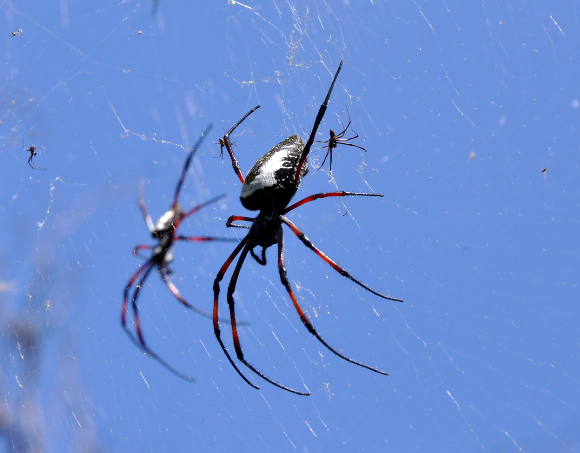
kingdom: Animalia
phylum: Arthropoda
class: Arachnida
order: Araneae
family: Araneidae
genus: Trichonephila
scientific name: Trichonephila inaurata
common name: Red-legged golden orb weaver
